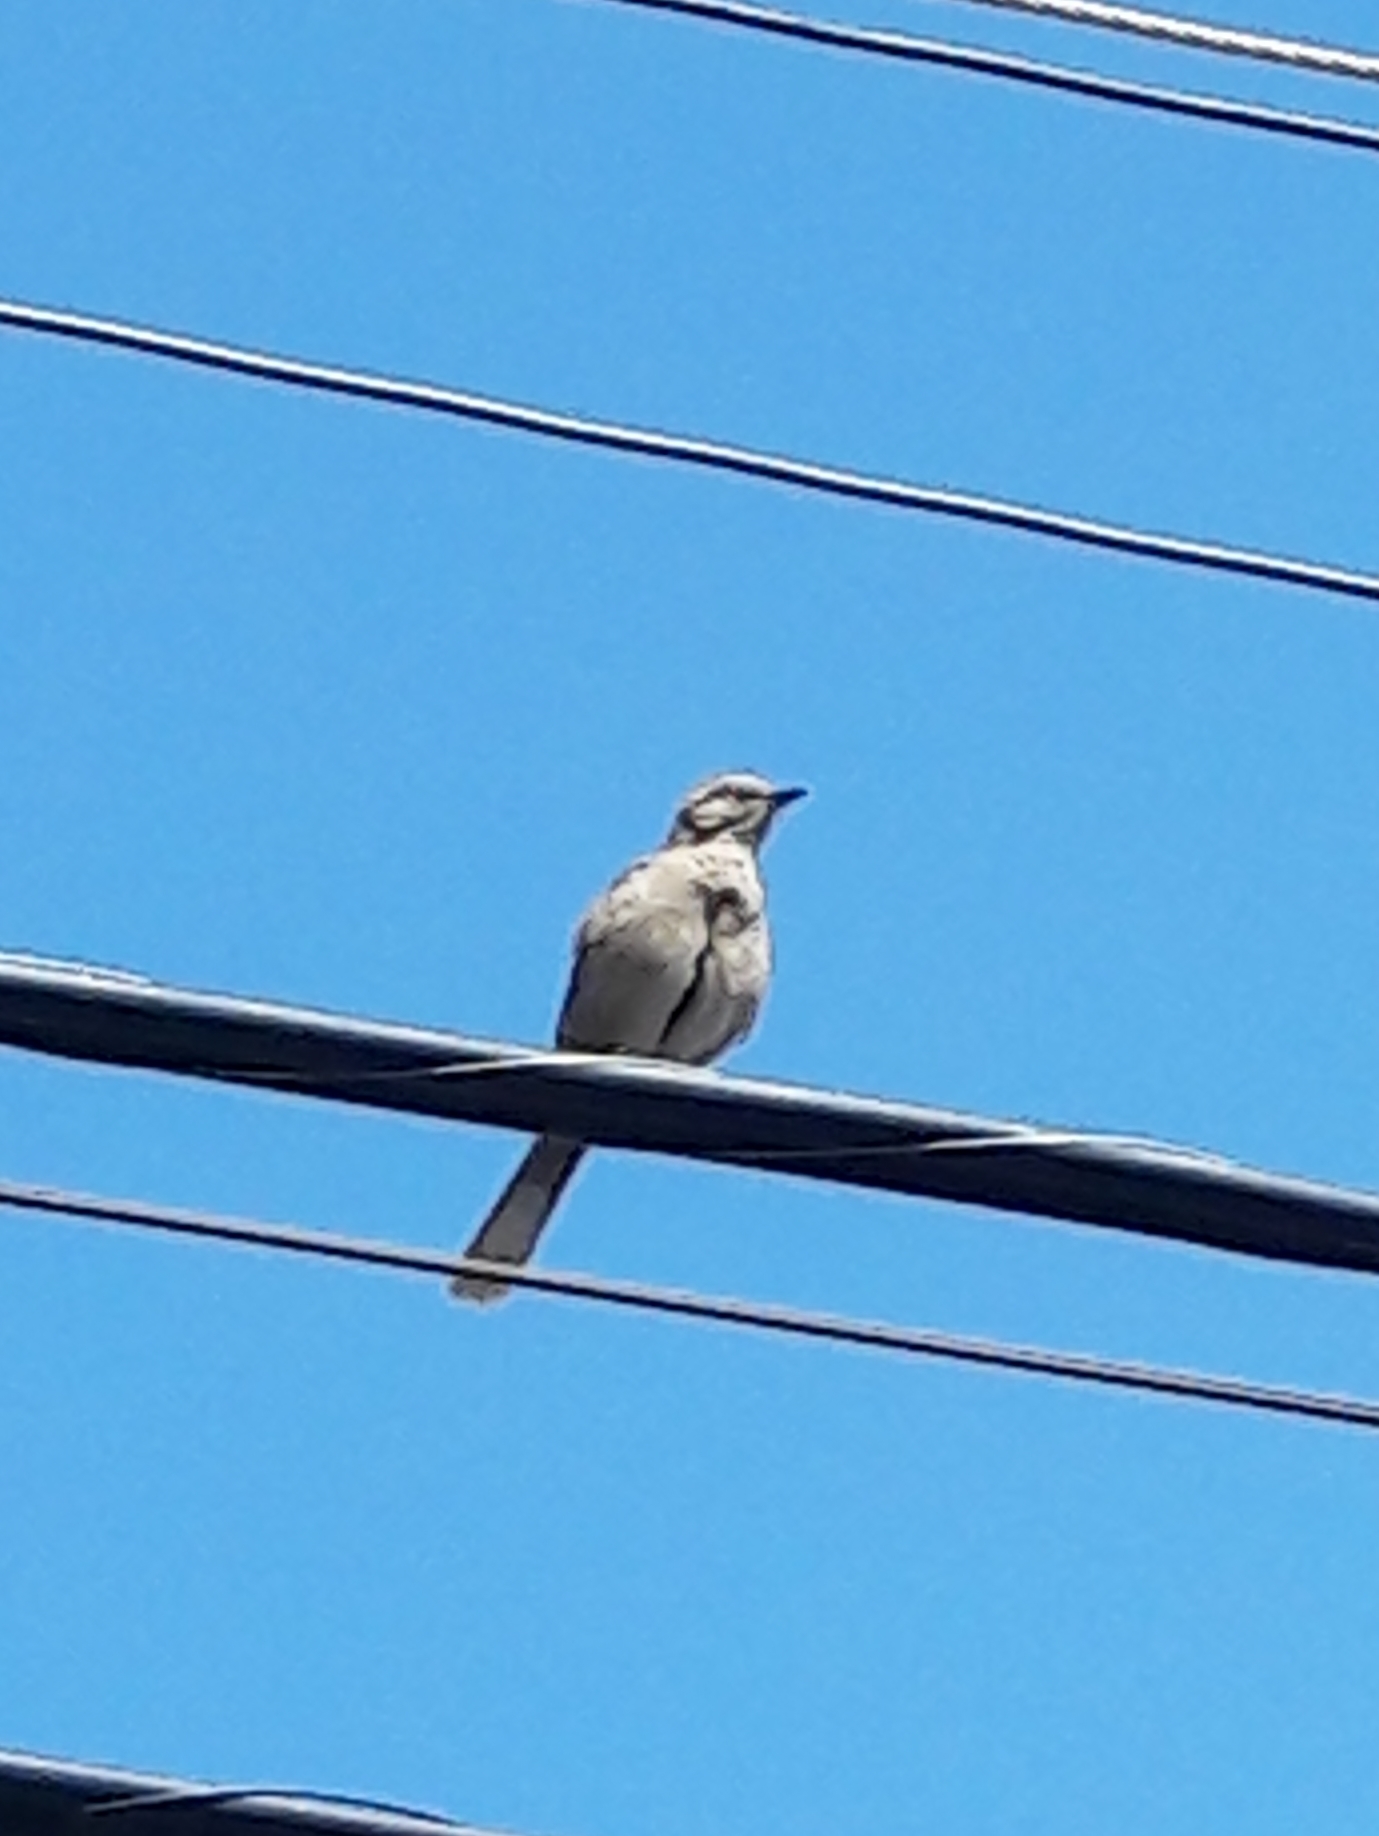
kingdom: Animalia
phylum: Chordata
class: Aves
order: Passeriformes
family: Mimidae
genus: Mimus
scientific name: Mimus saturninus
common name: Chalk-browed mockingbird
